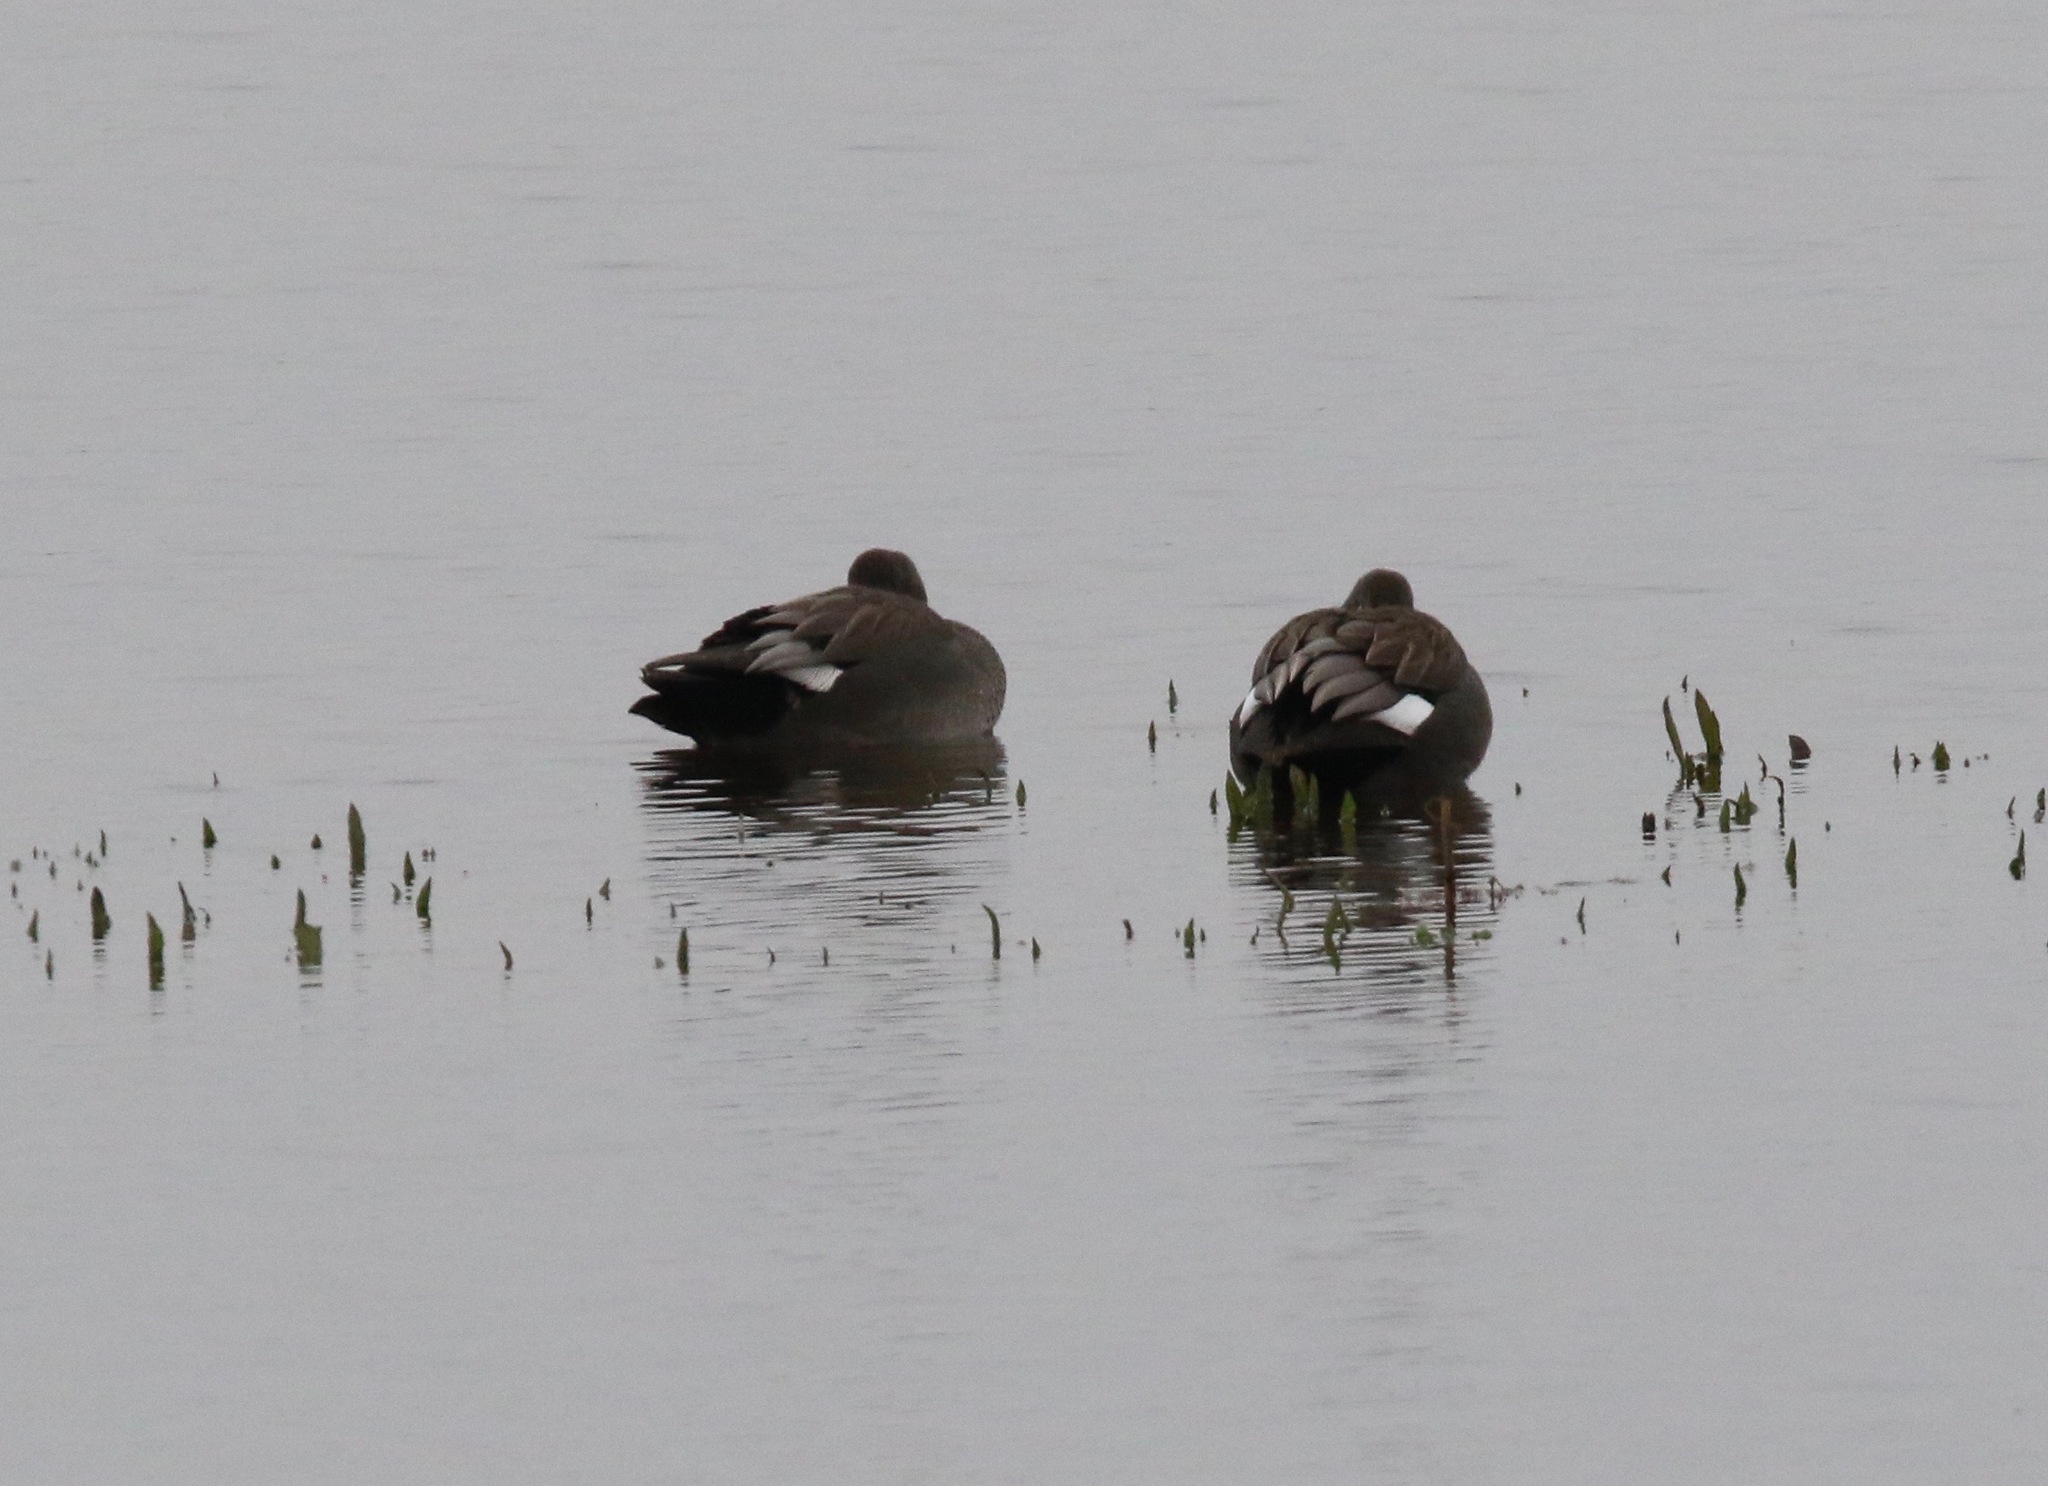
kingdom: Animalia
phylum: Chordata
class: Aves
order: Anseriformes
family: Anatidae
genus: Mareca
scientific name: Mareca strepera
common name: Gadwall
